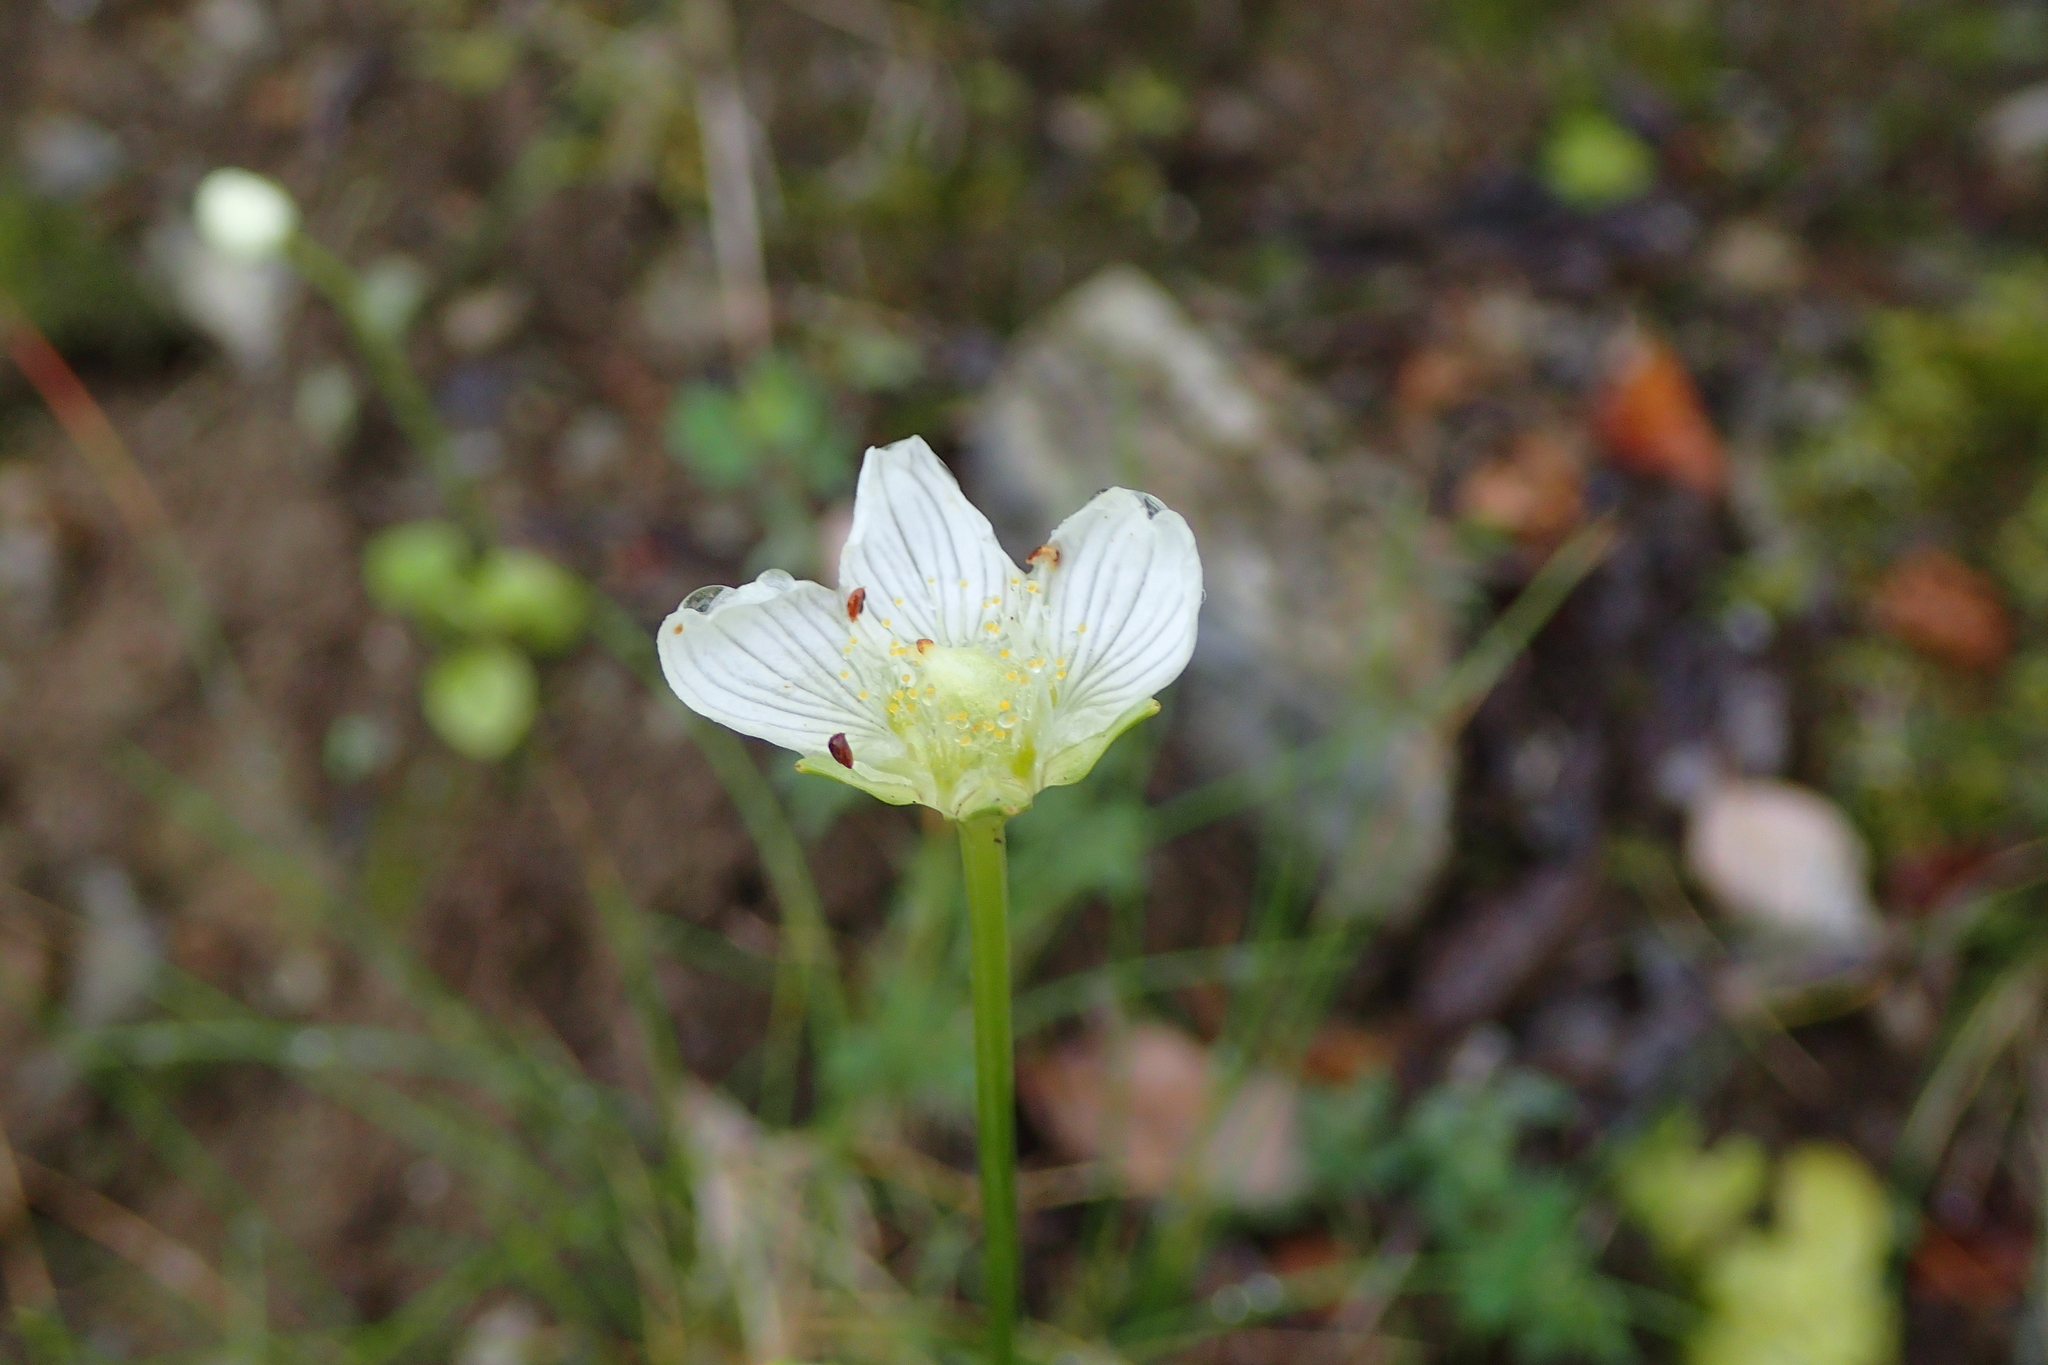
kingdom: Plantae
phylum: Tracheophyta
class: Magnoliopsida
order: Celastrales
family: Parnassiaceae
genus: Parnassia
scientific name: Parnassia palustris
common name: Grass-of-parnassus
